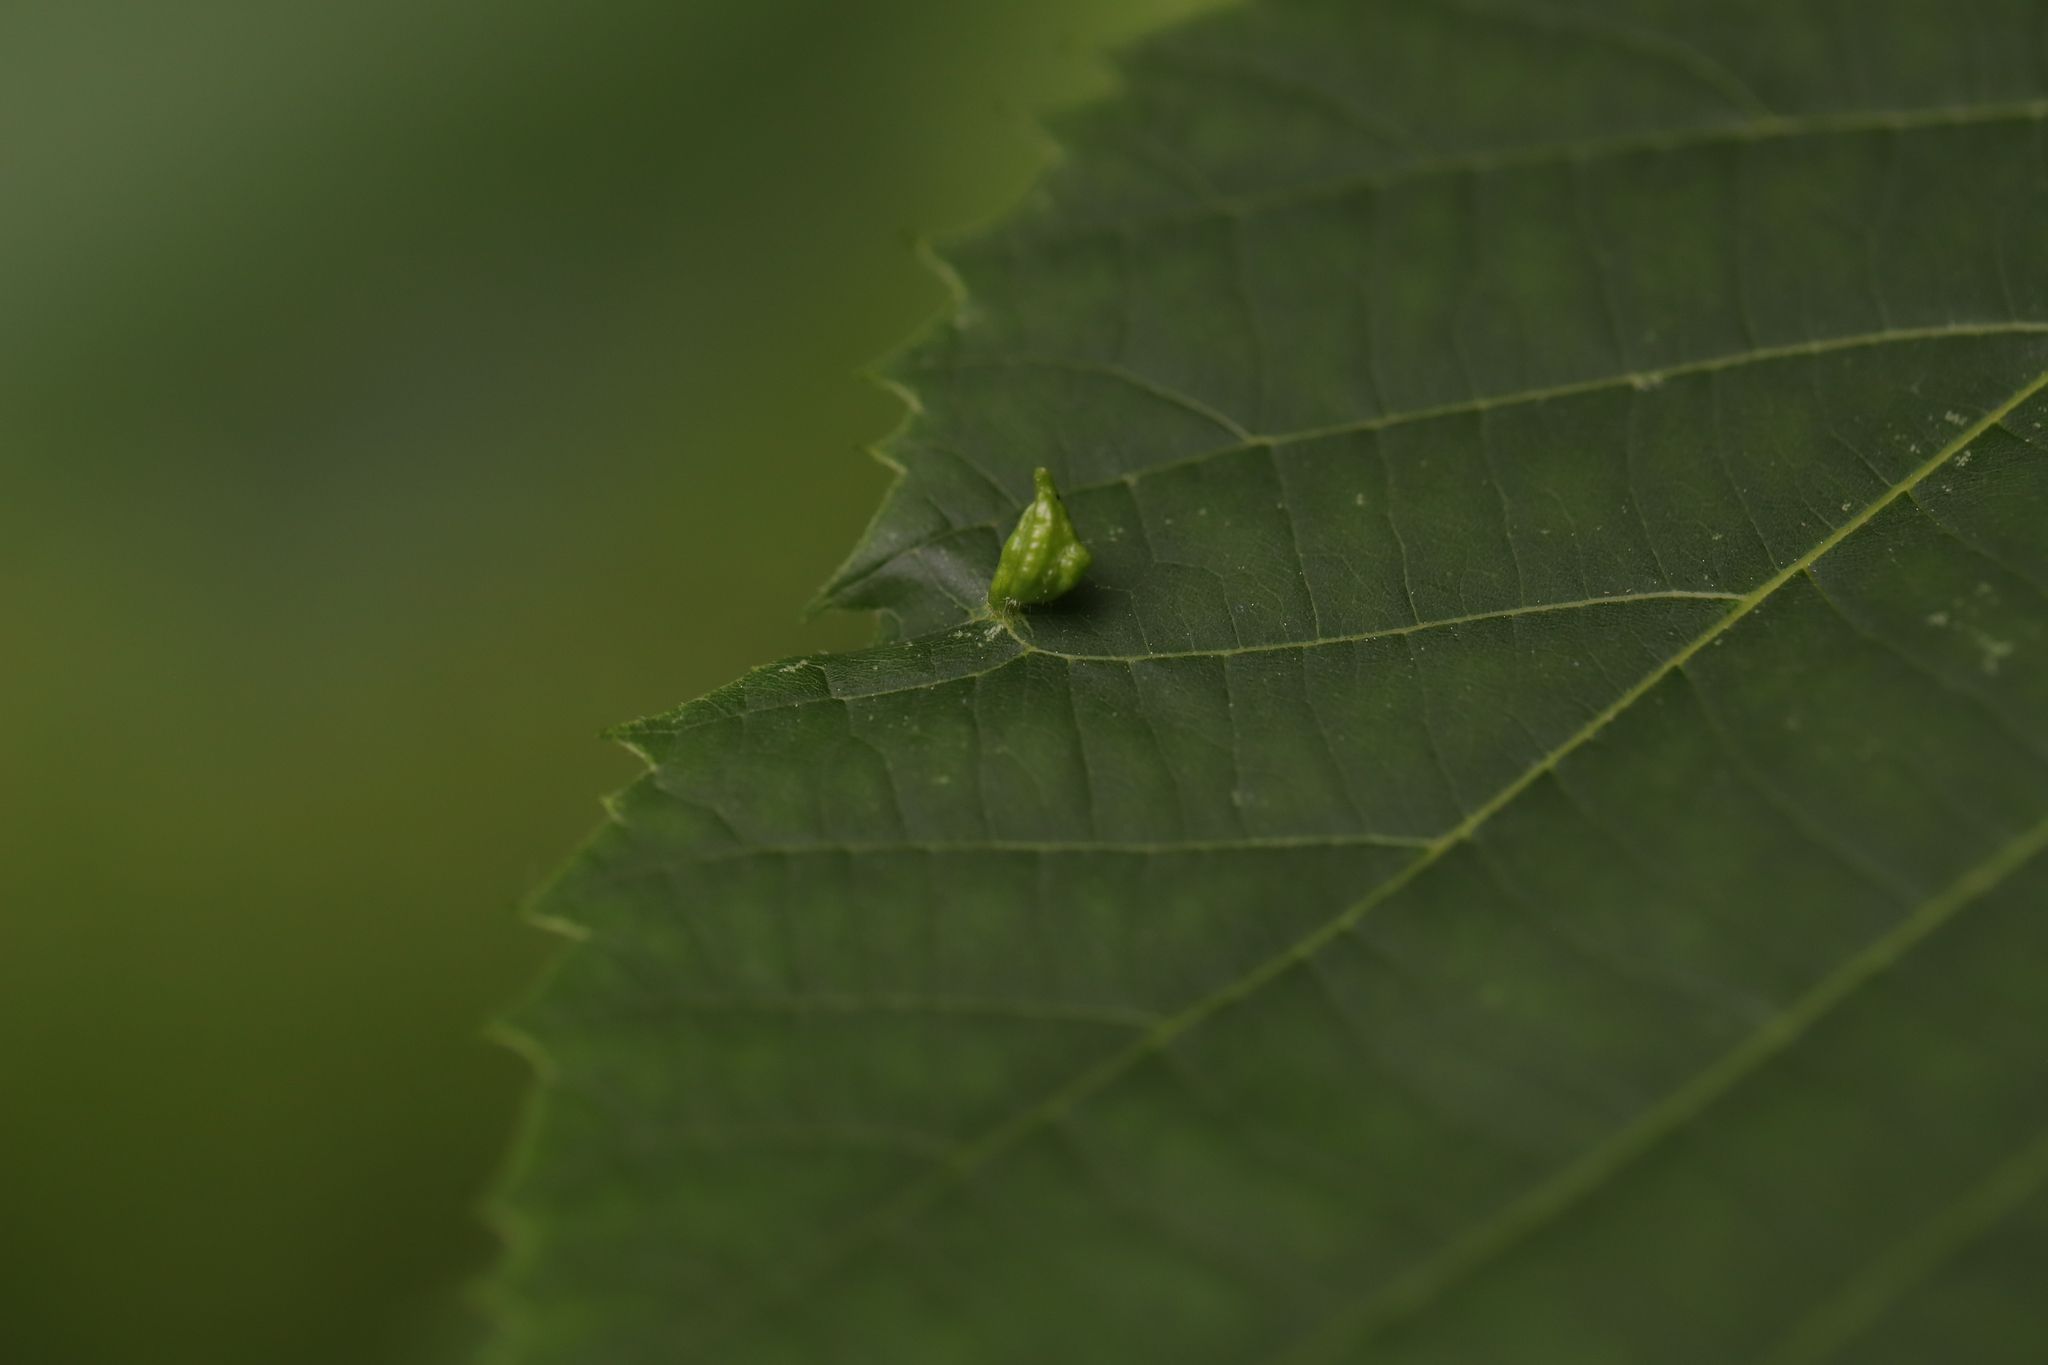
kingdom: Animalia
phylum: Arthropoda
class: Arachnida
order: Trombidiformes
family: Eriophyidae
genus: Eriophyes
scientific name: Eriophyes tiliae
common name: Red nail gall mite
